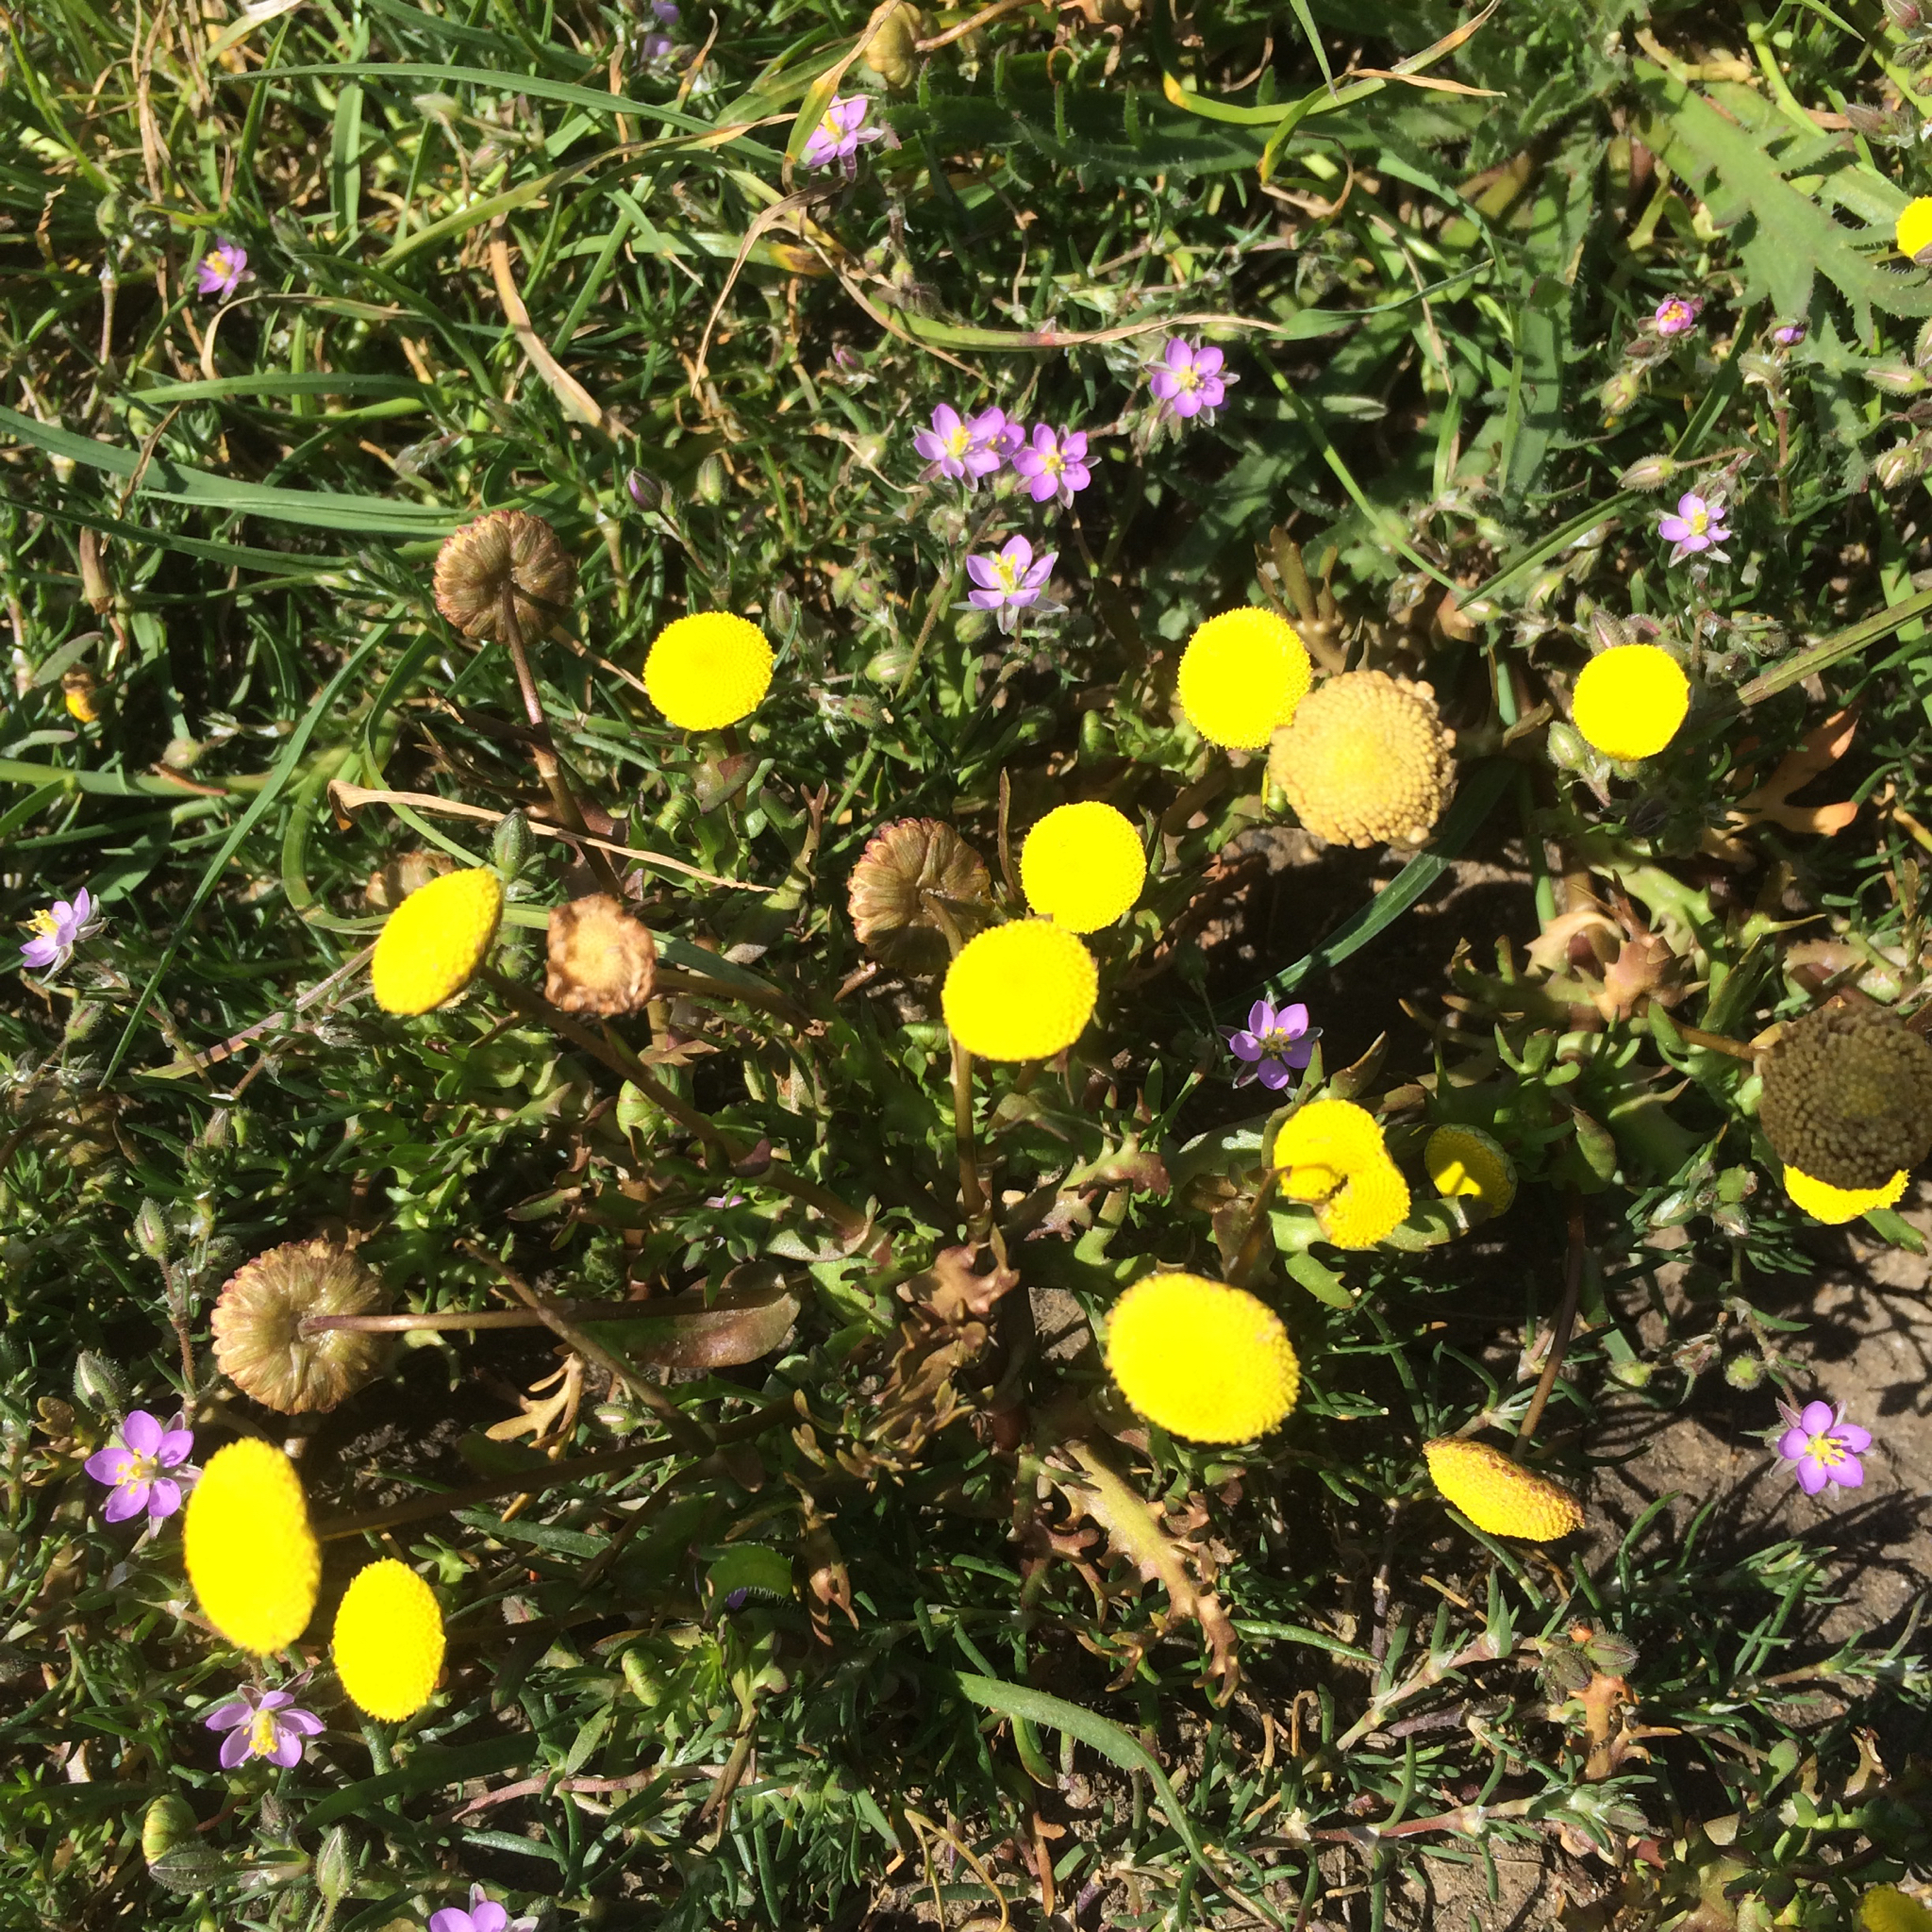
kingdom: Plantae
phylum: Tracheophyta
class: Magnoliopsida
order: Asterales
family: Asteraceae
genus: Cotula
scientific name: Cotula coronopifolia
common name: Buttonweed
